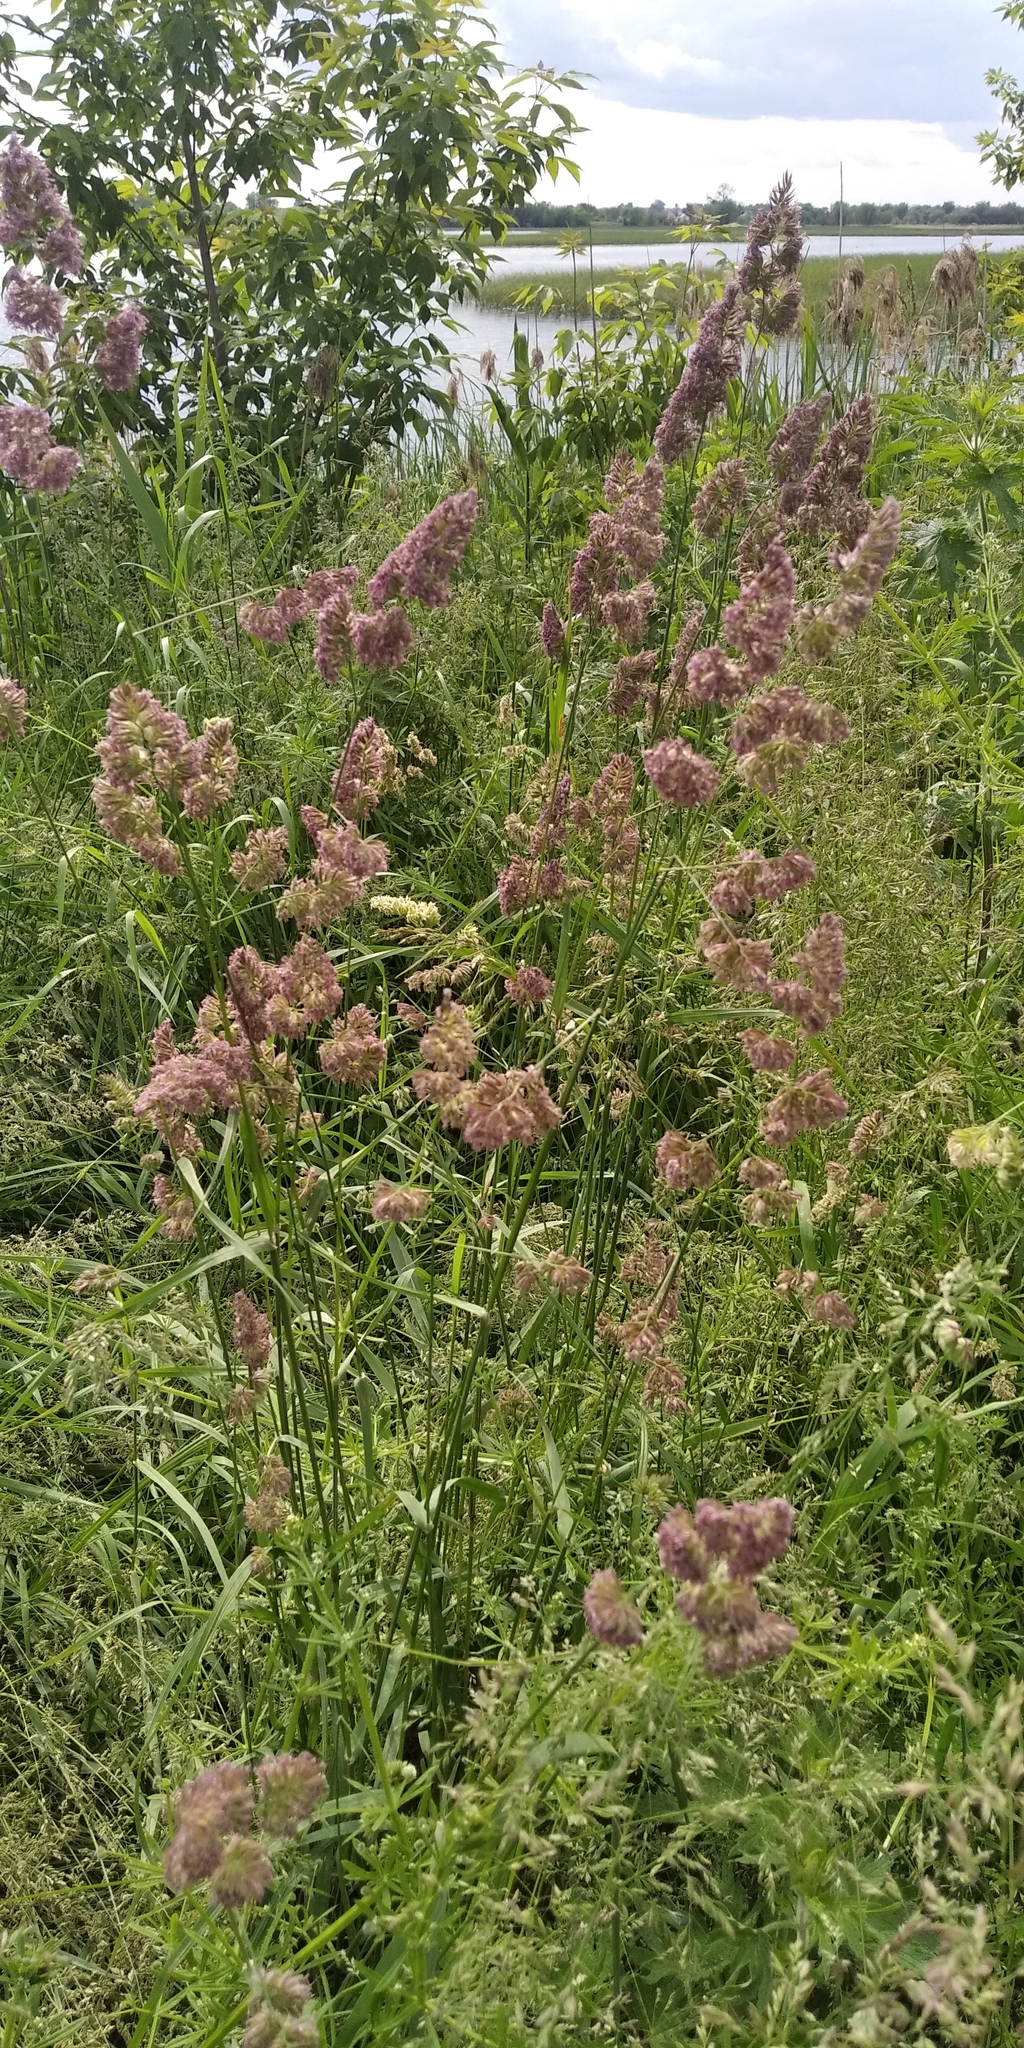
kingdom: Plantae
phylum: Tracheophyta
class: Liliopsida
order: Poales
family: Poaceae
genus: Dactylis
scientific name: Dactylis glomerata
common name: Orchardgrass
